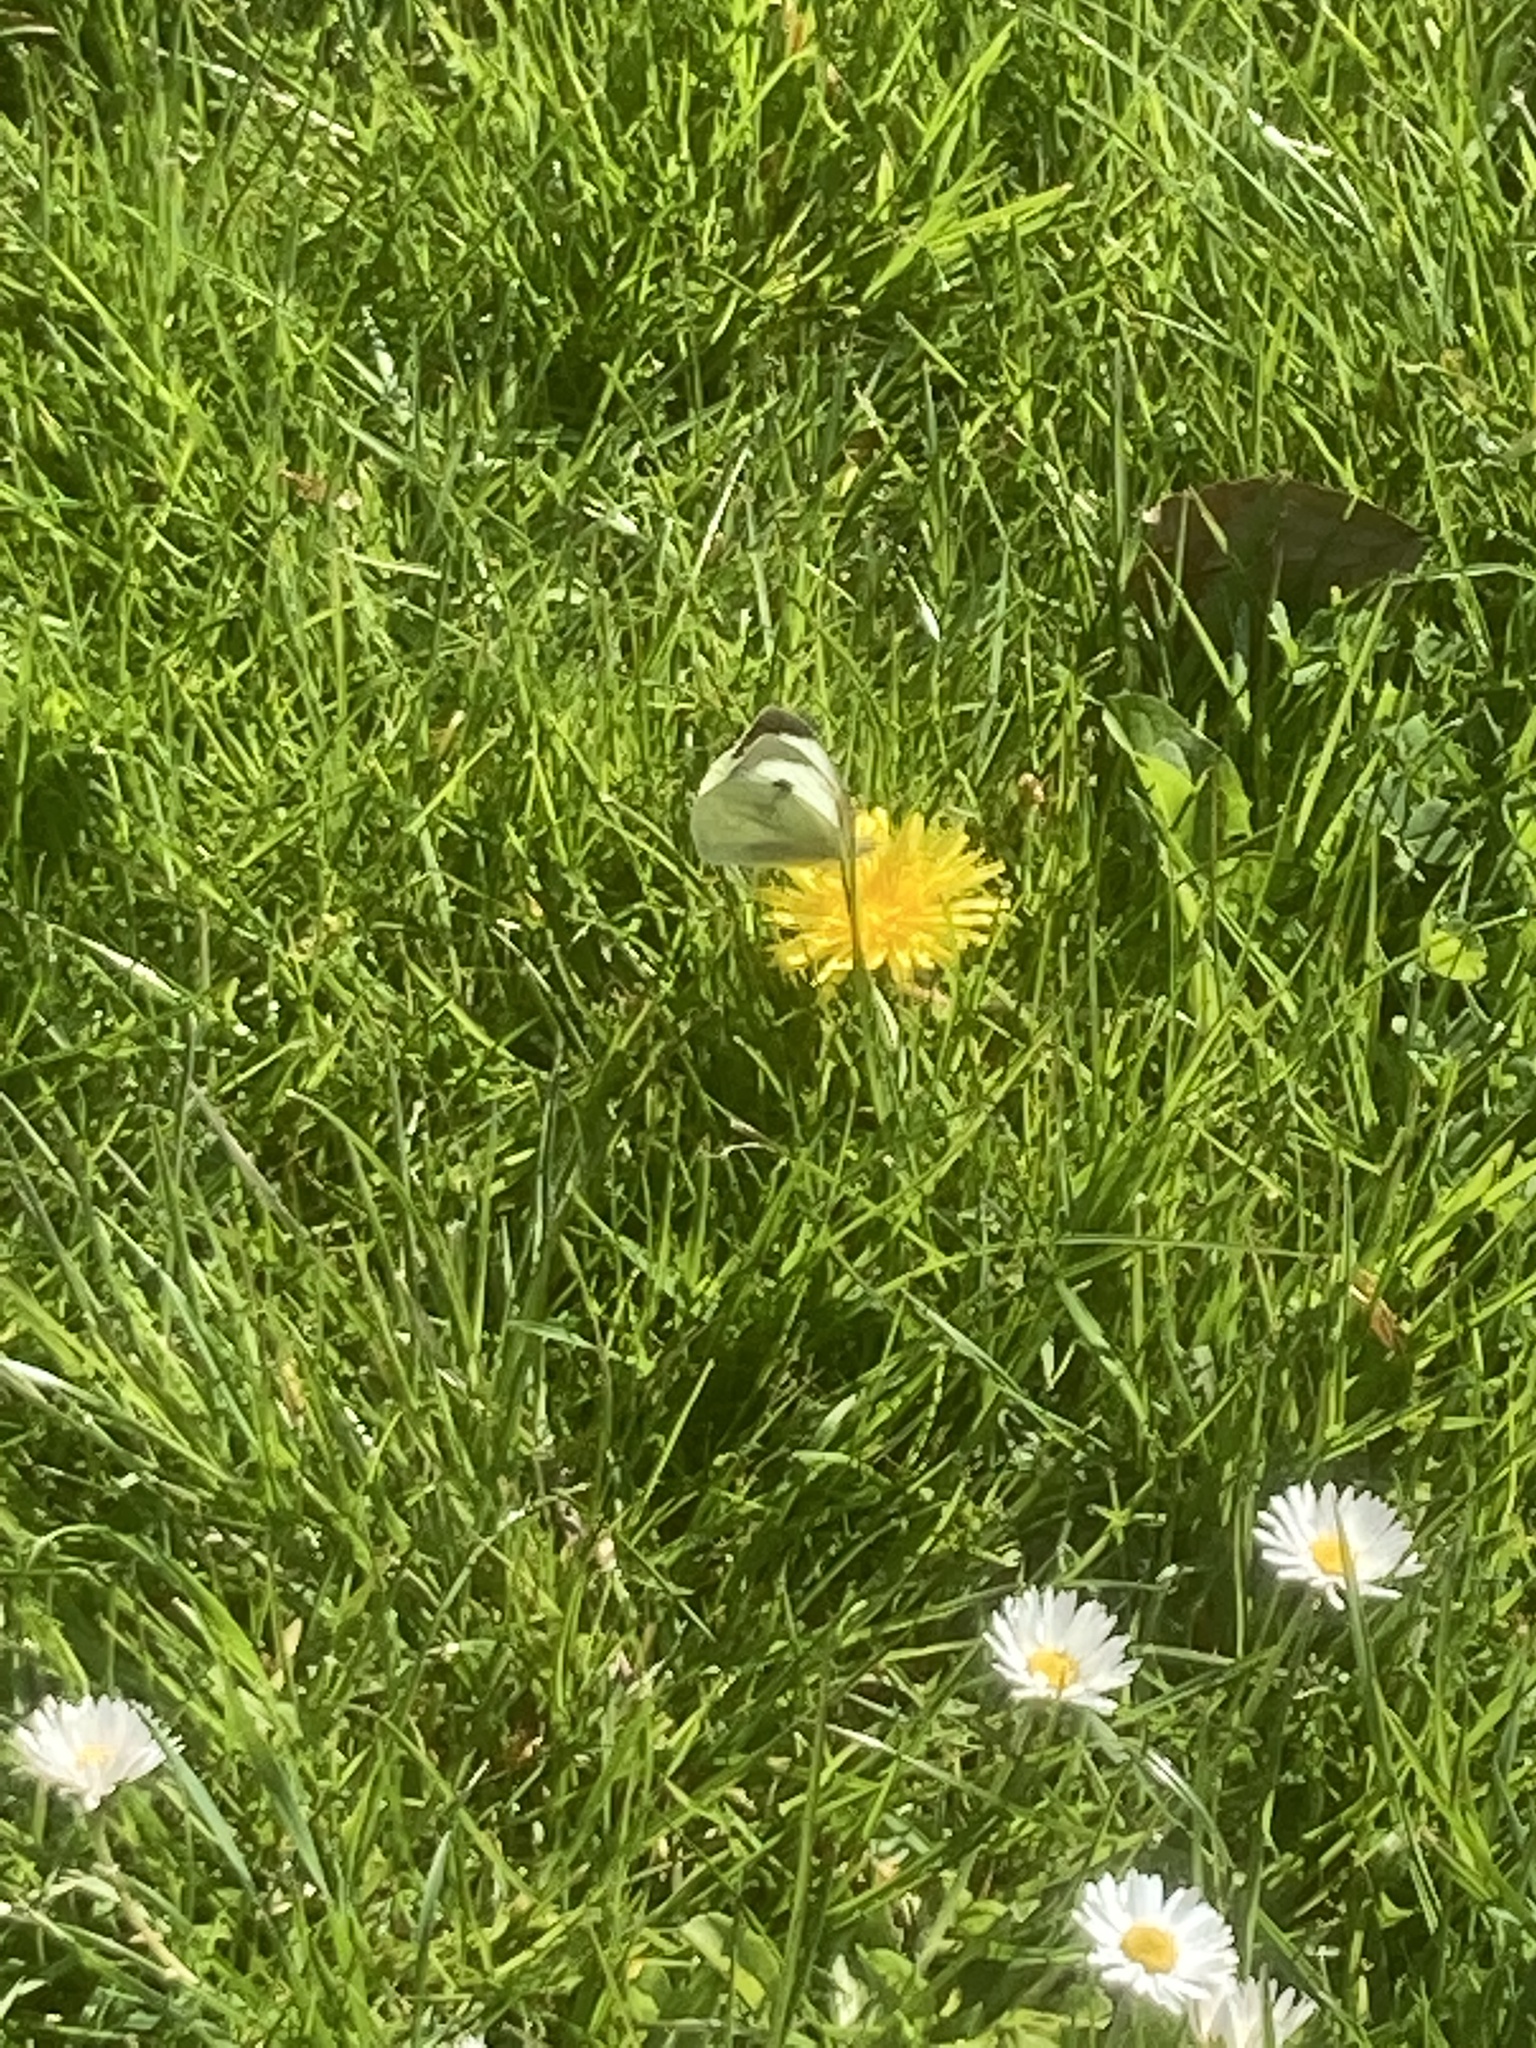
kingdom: Animalia
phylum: Arthropoda
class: Insecta
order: Lepidoptera
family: Pieridae
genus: Pieris
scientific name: Pieris brassicae
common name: Large white
